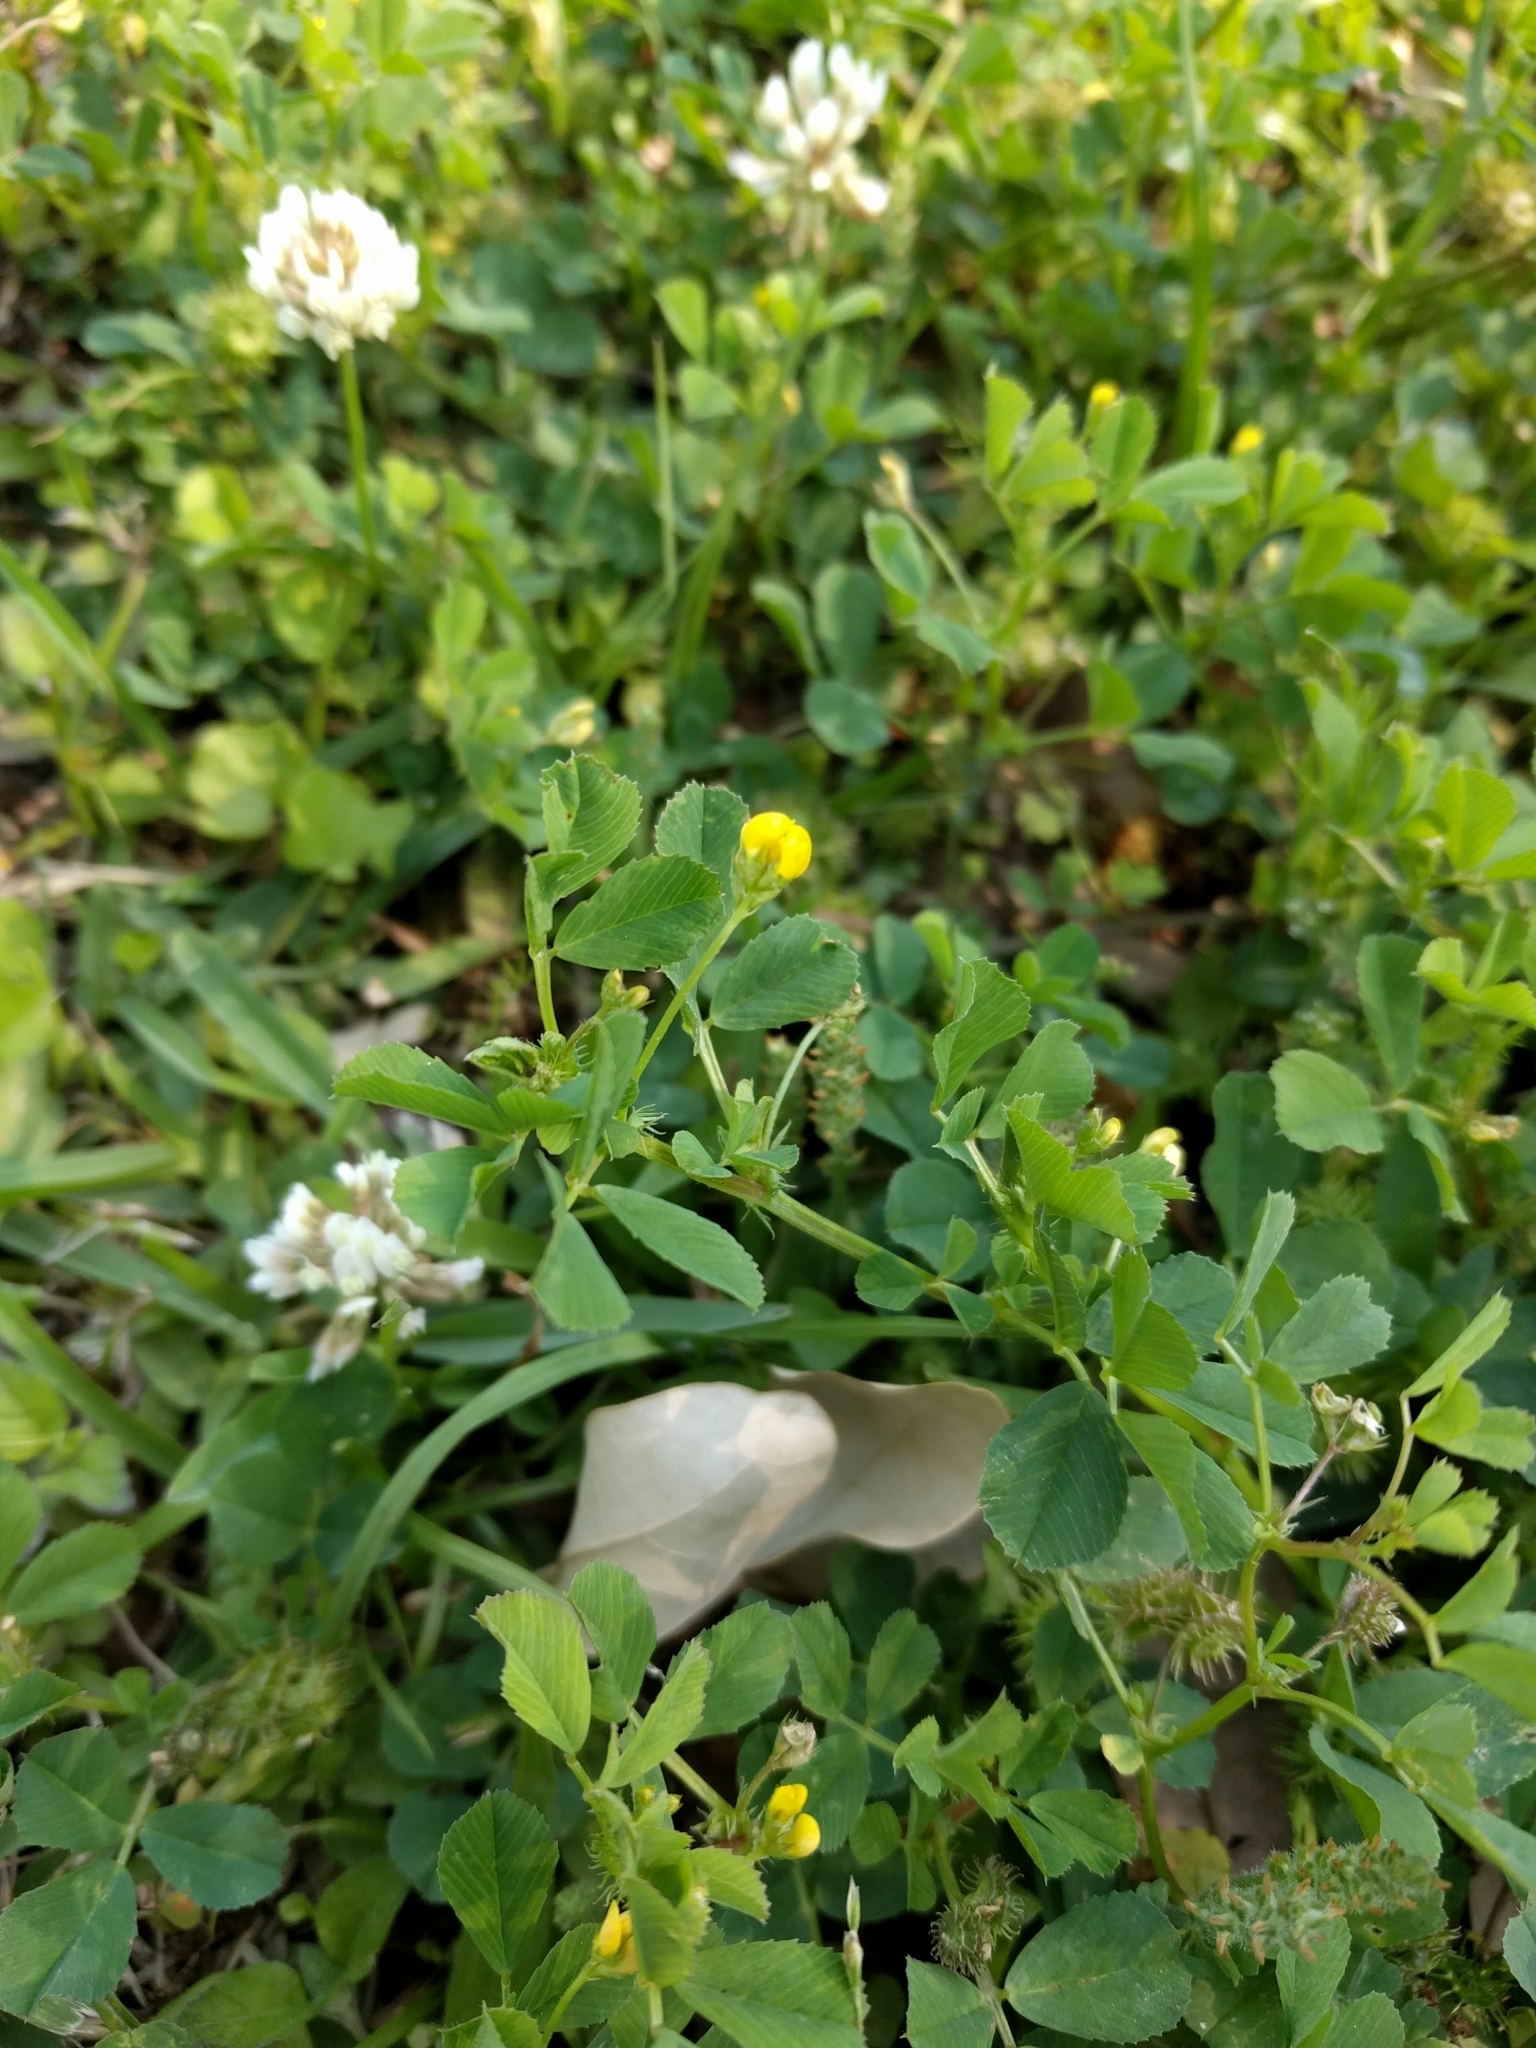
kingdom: Plantae
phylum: Tracheophyta
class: Magnoliopsida
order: Fabales
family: Fabaceae
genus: Medicago
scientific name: Medicago polymorpha
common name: Burclover
